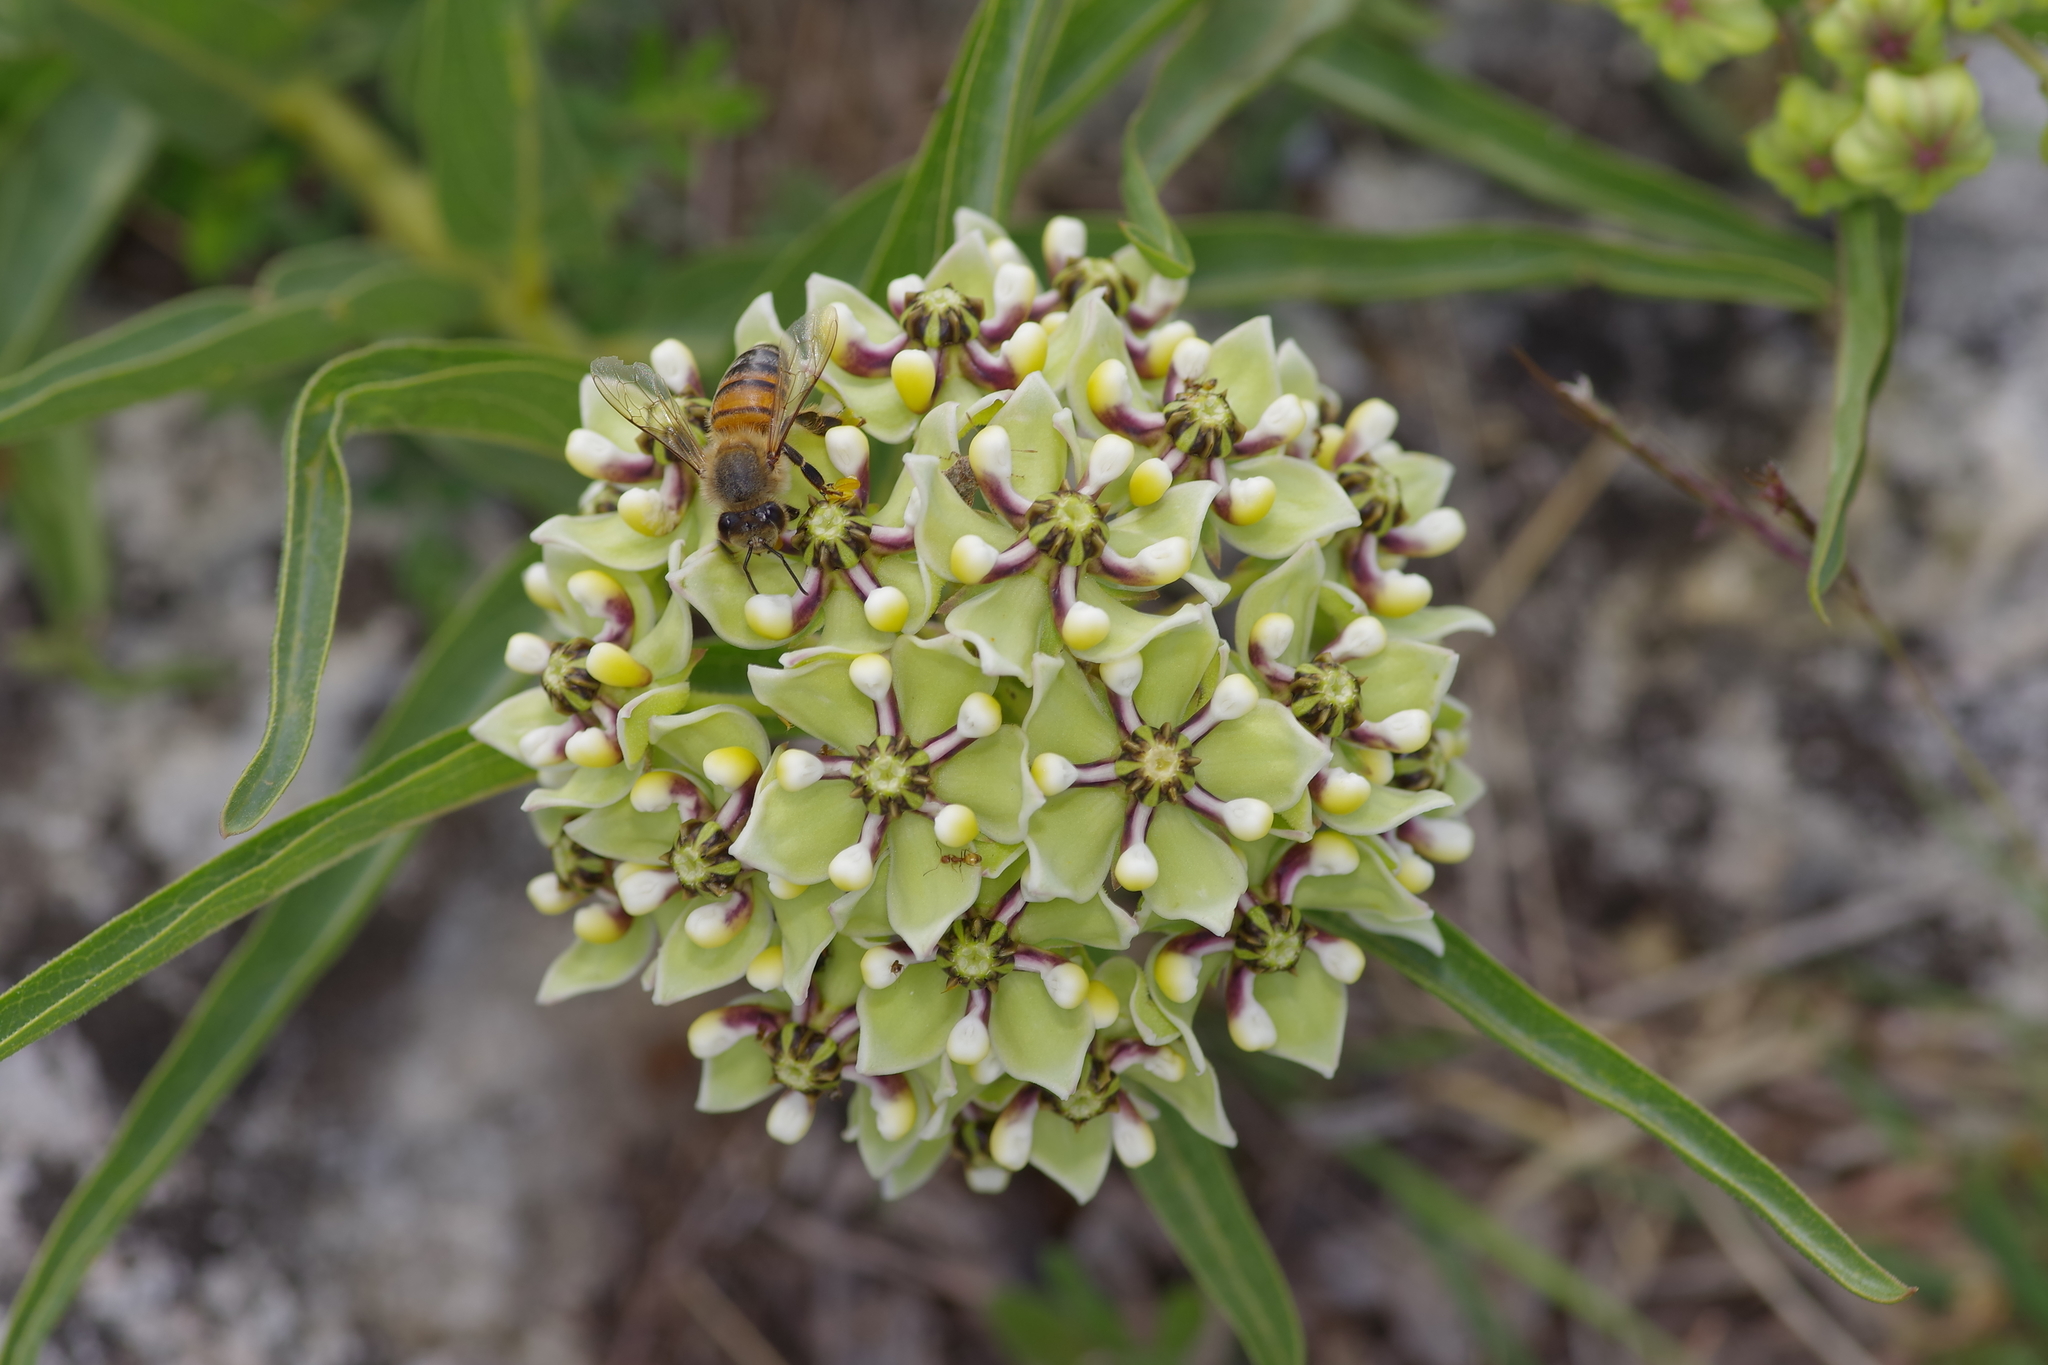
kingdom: Plantae
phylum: Tracheophyta
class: Magnoliopsida
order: Gentianales
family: Apocynaceae
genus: Asclepias
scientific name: Asclepias asperula
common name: Antelope horns
